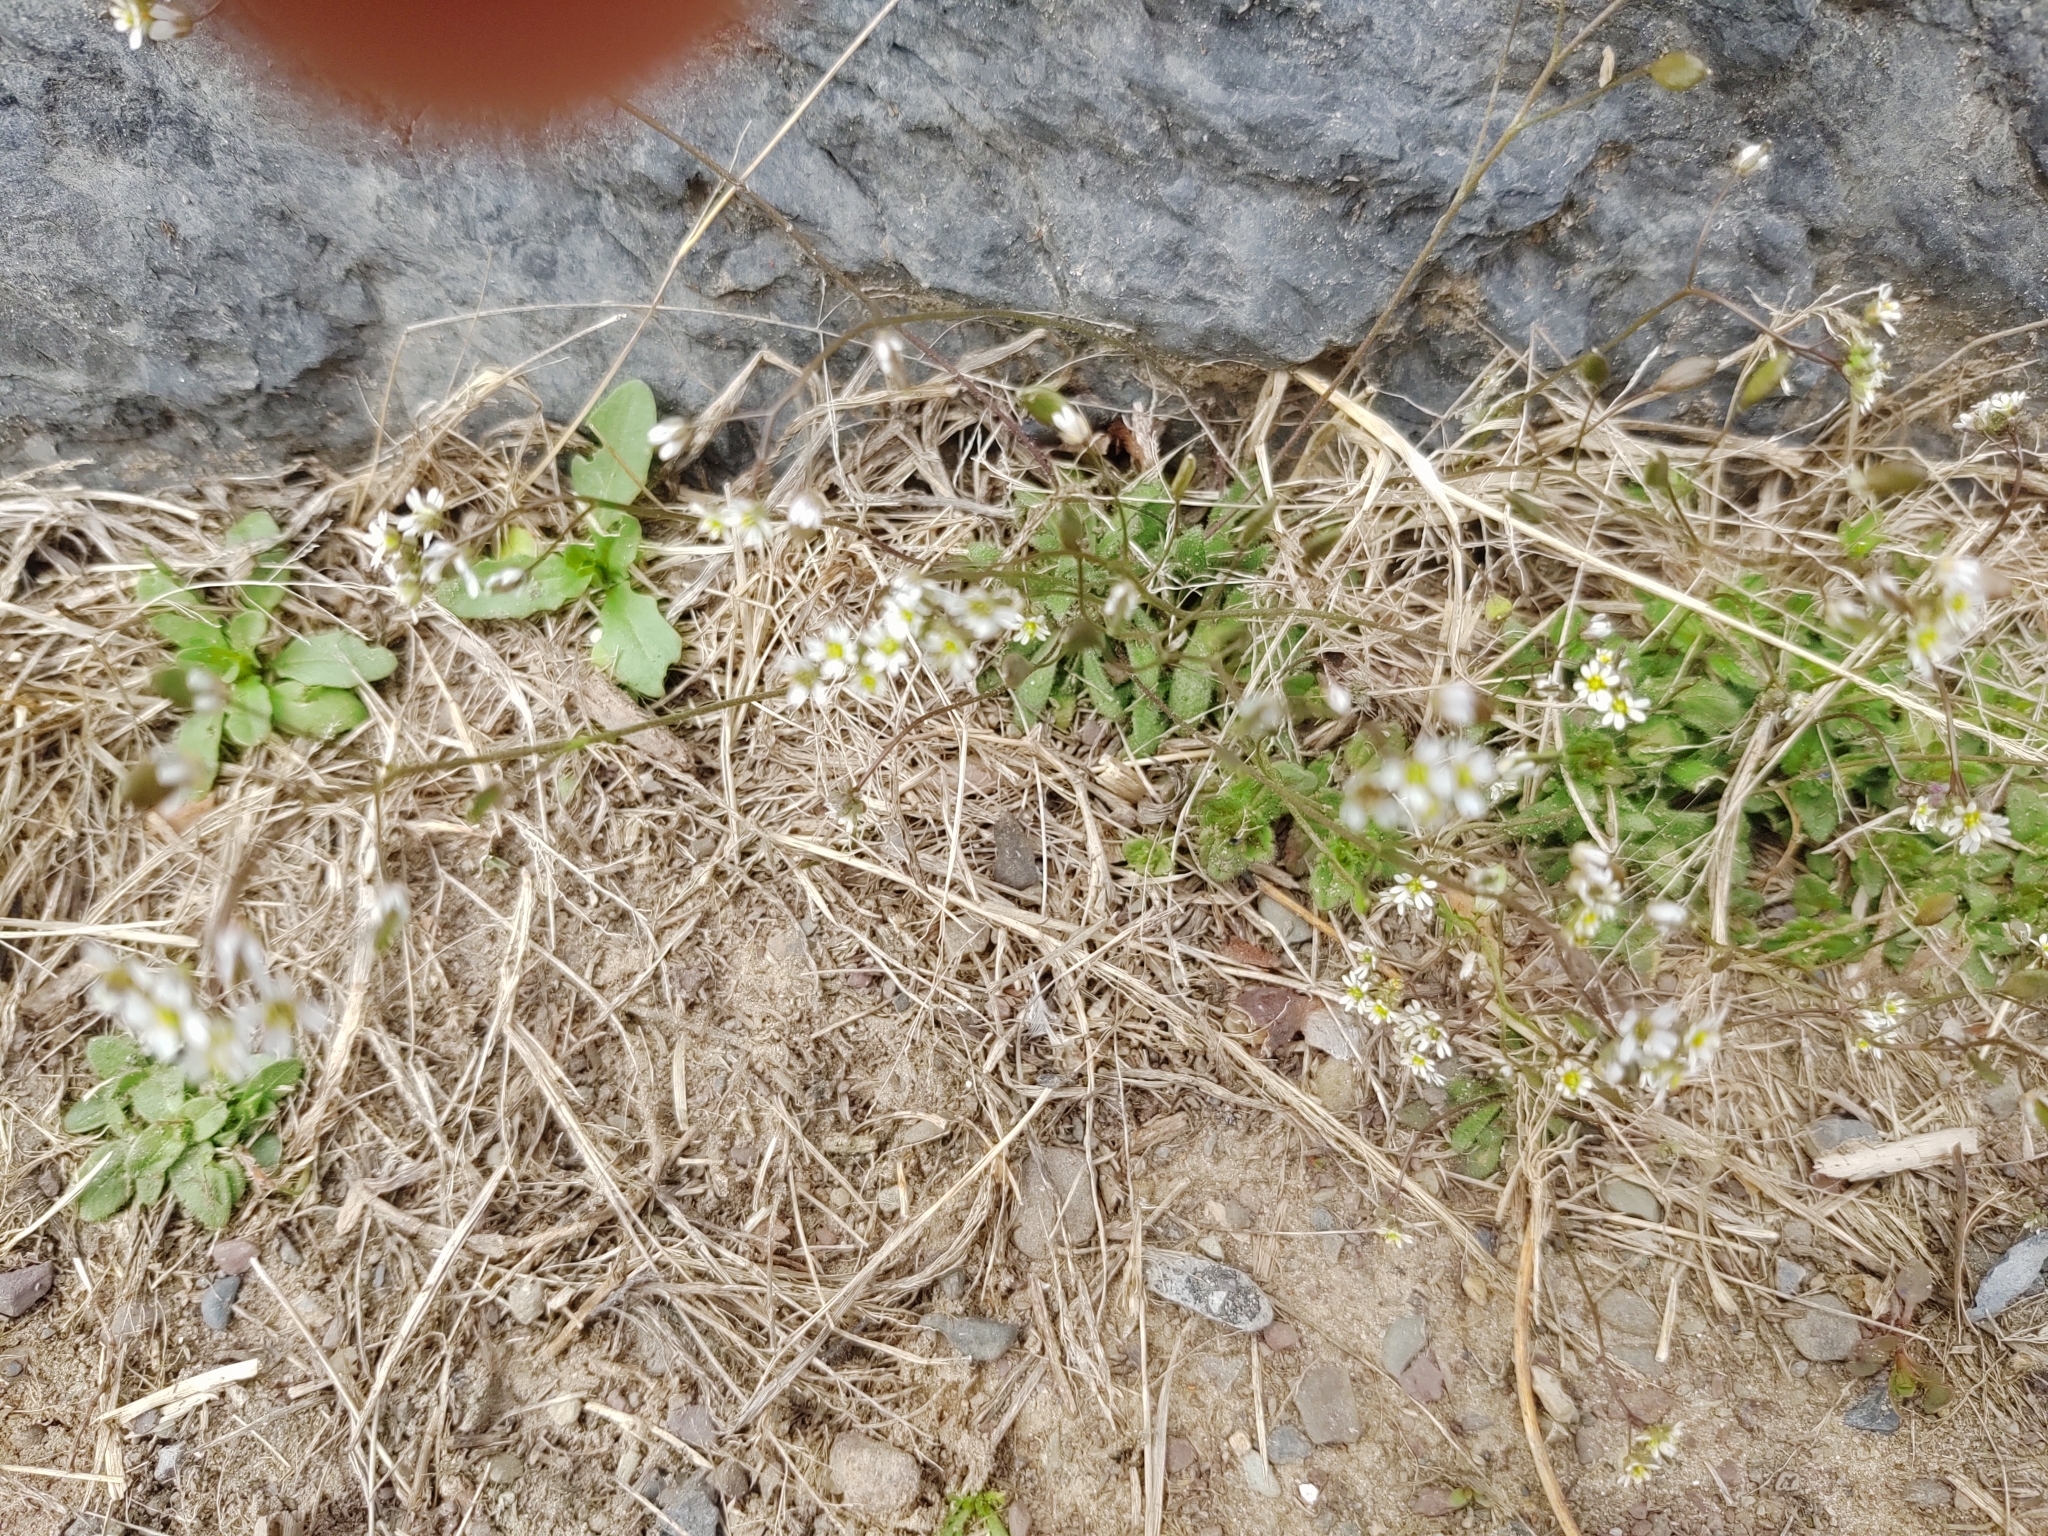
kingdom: Plantae
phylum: Tracheophyta
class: Magnoliopsida
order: Brassicales
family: Brassicaceae
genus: Draba
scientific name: Draba verna
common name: Spring draba
